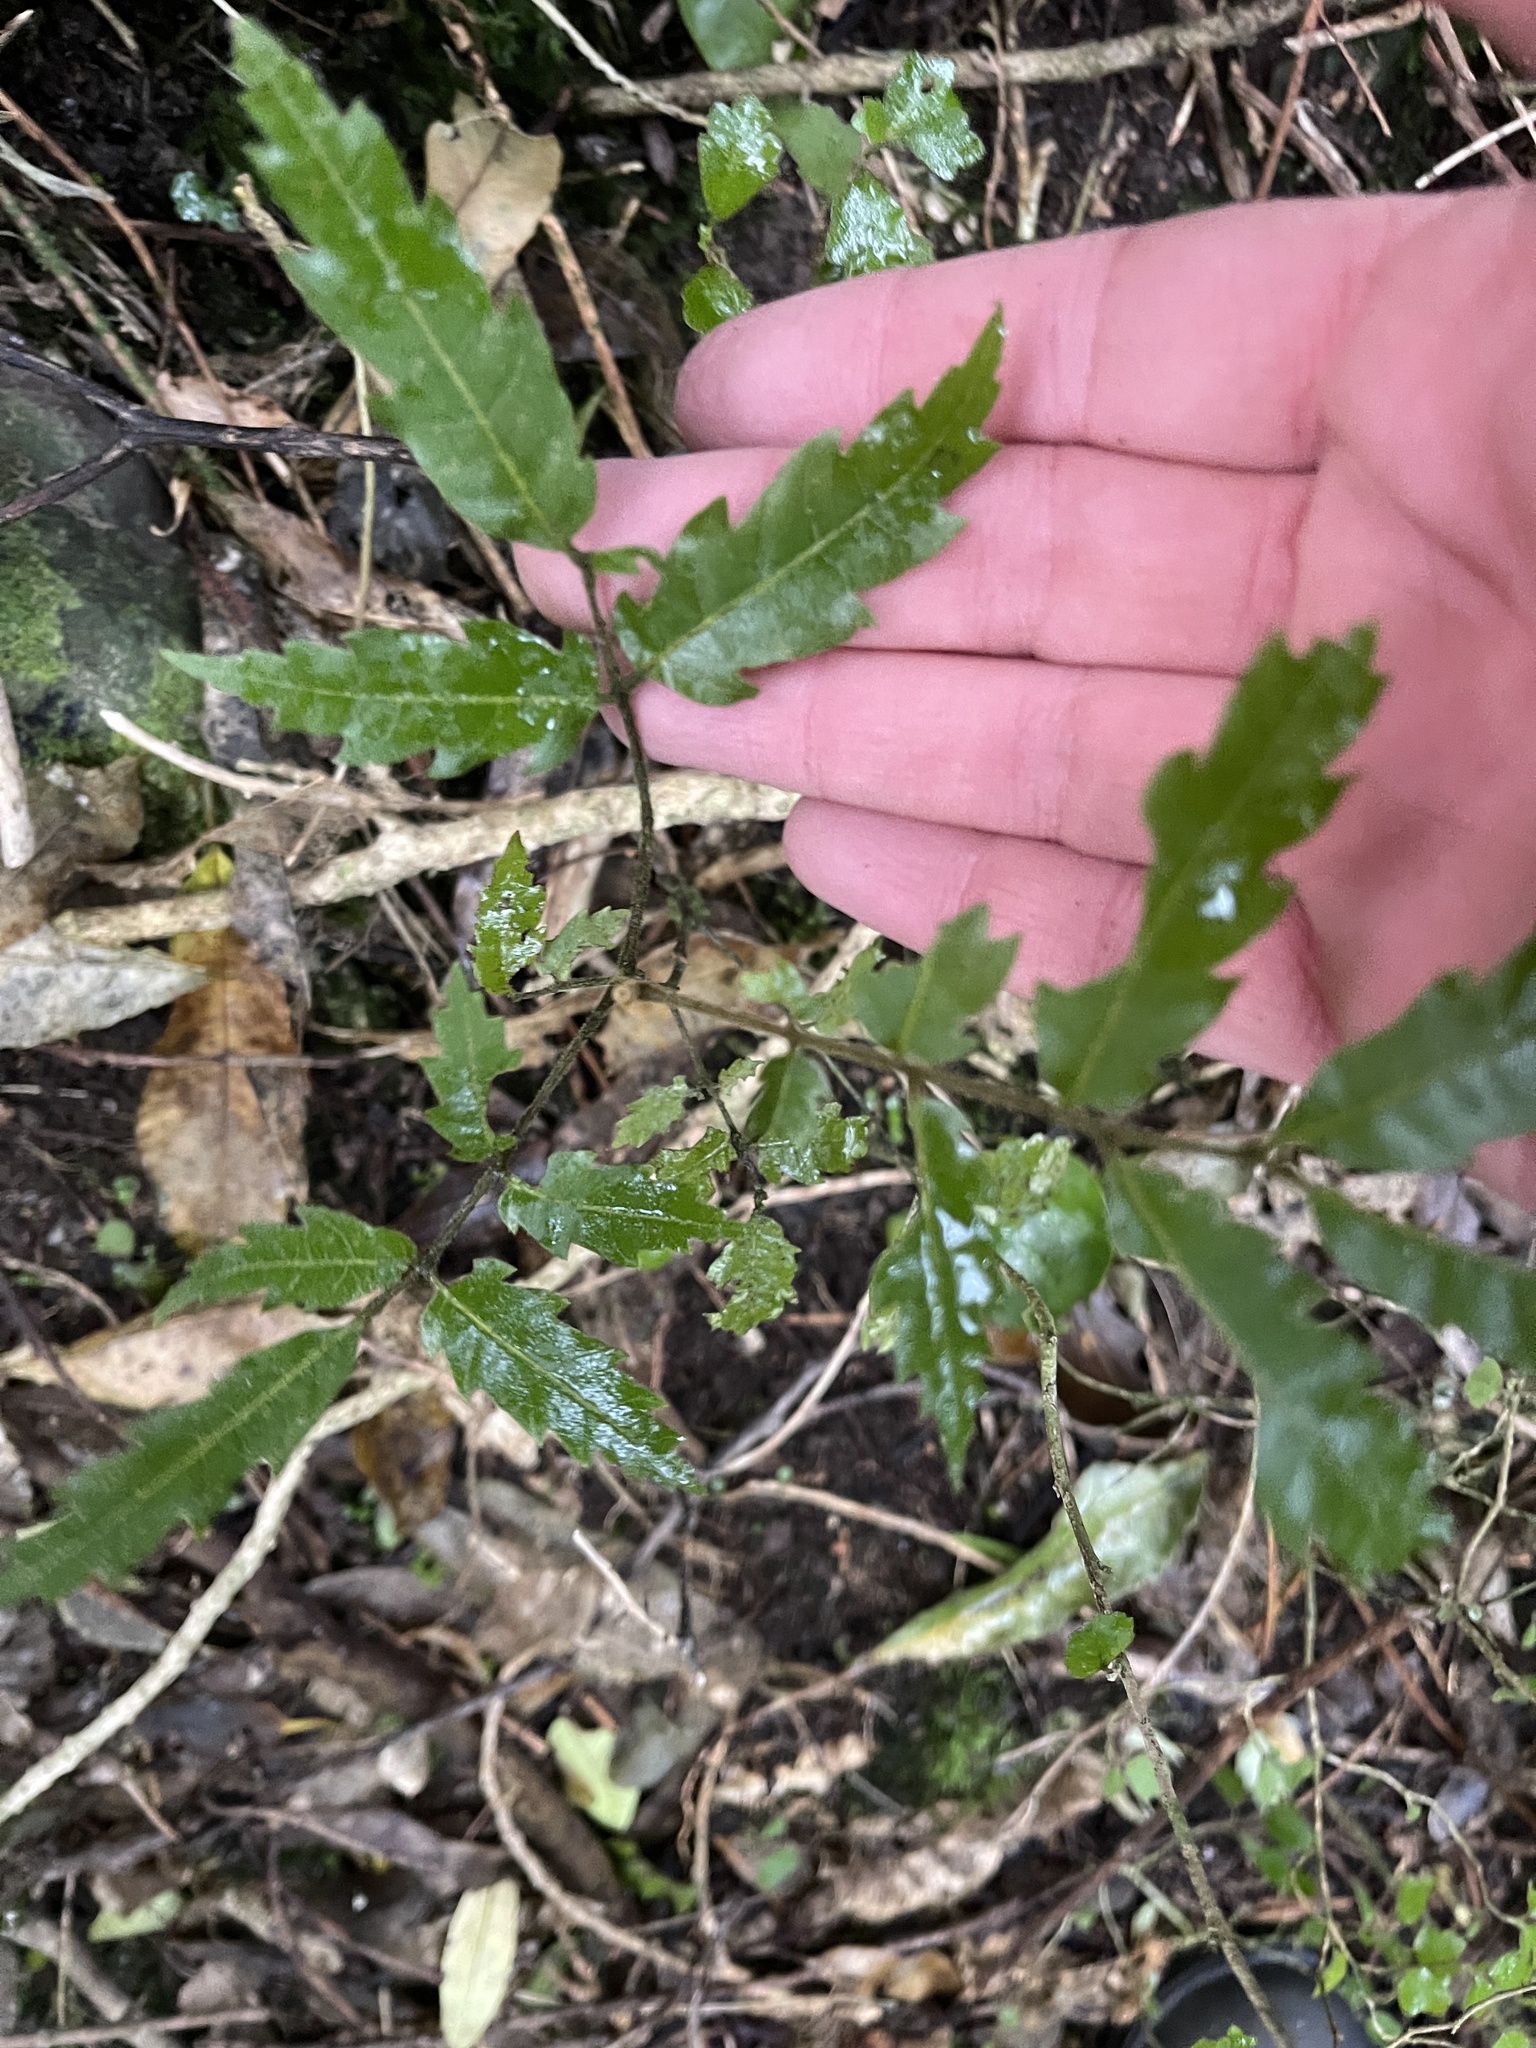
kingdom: Plantae
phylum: Tracheophyta
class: Magnoliopsida
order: Sapindales
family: Sapindaceae
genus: Alectryon
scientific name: Alectryon excelsus
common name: Three kings titoki
